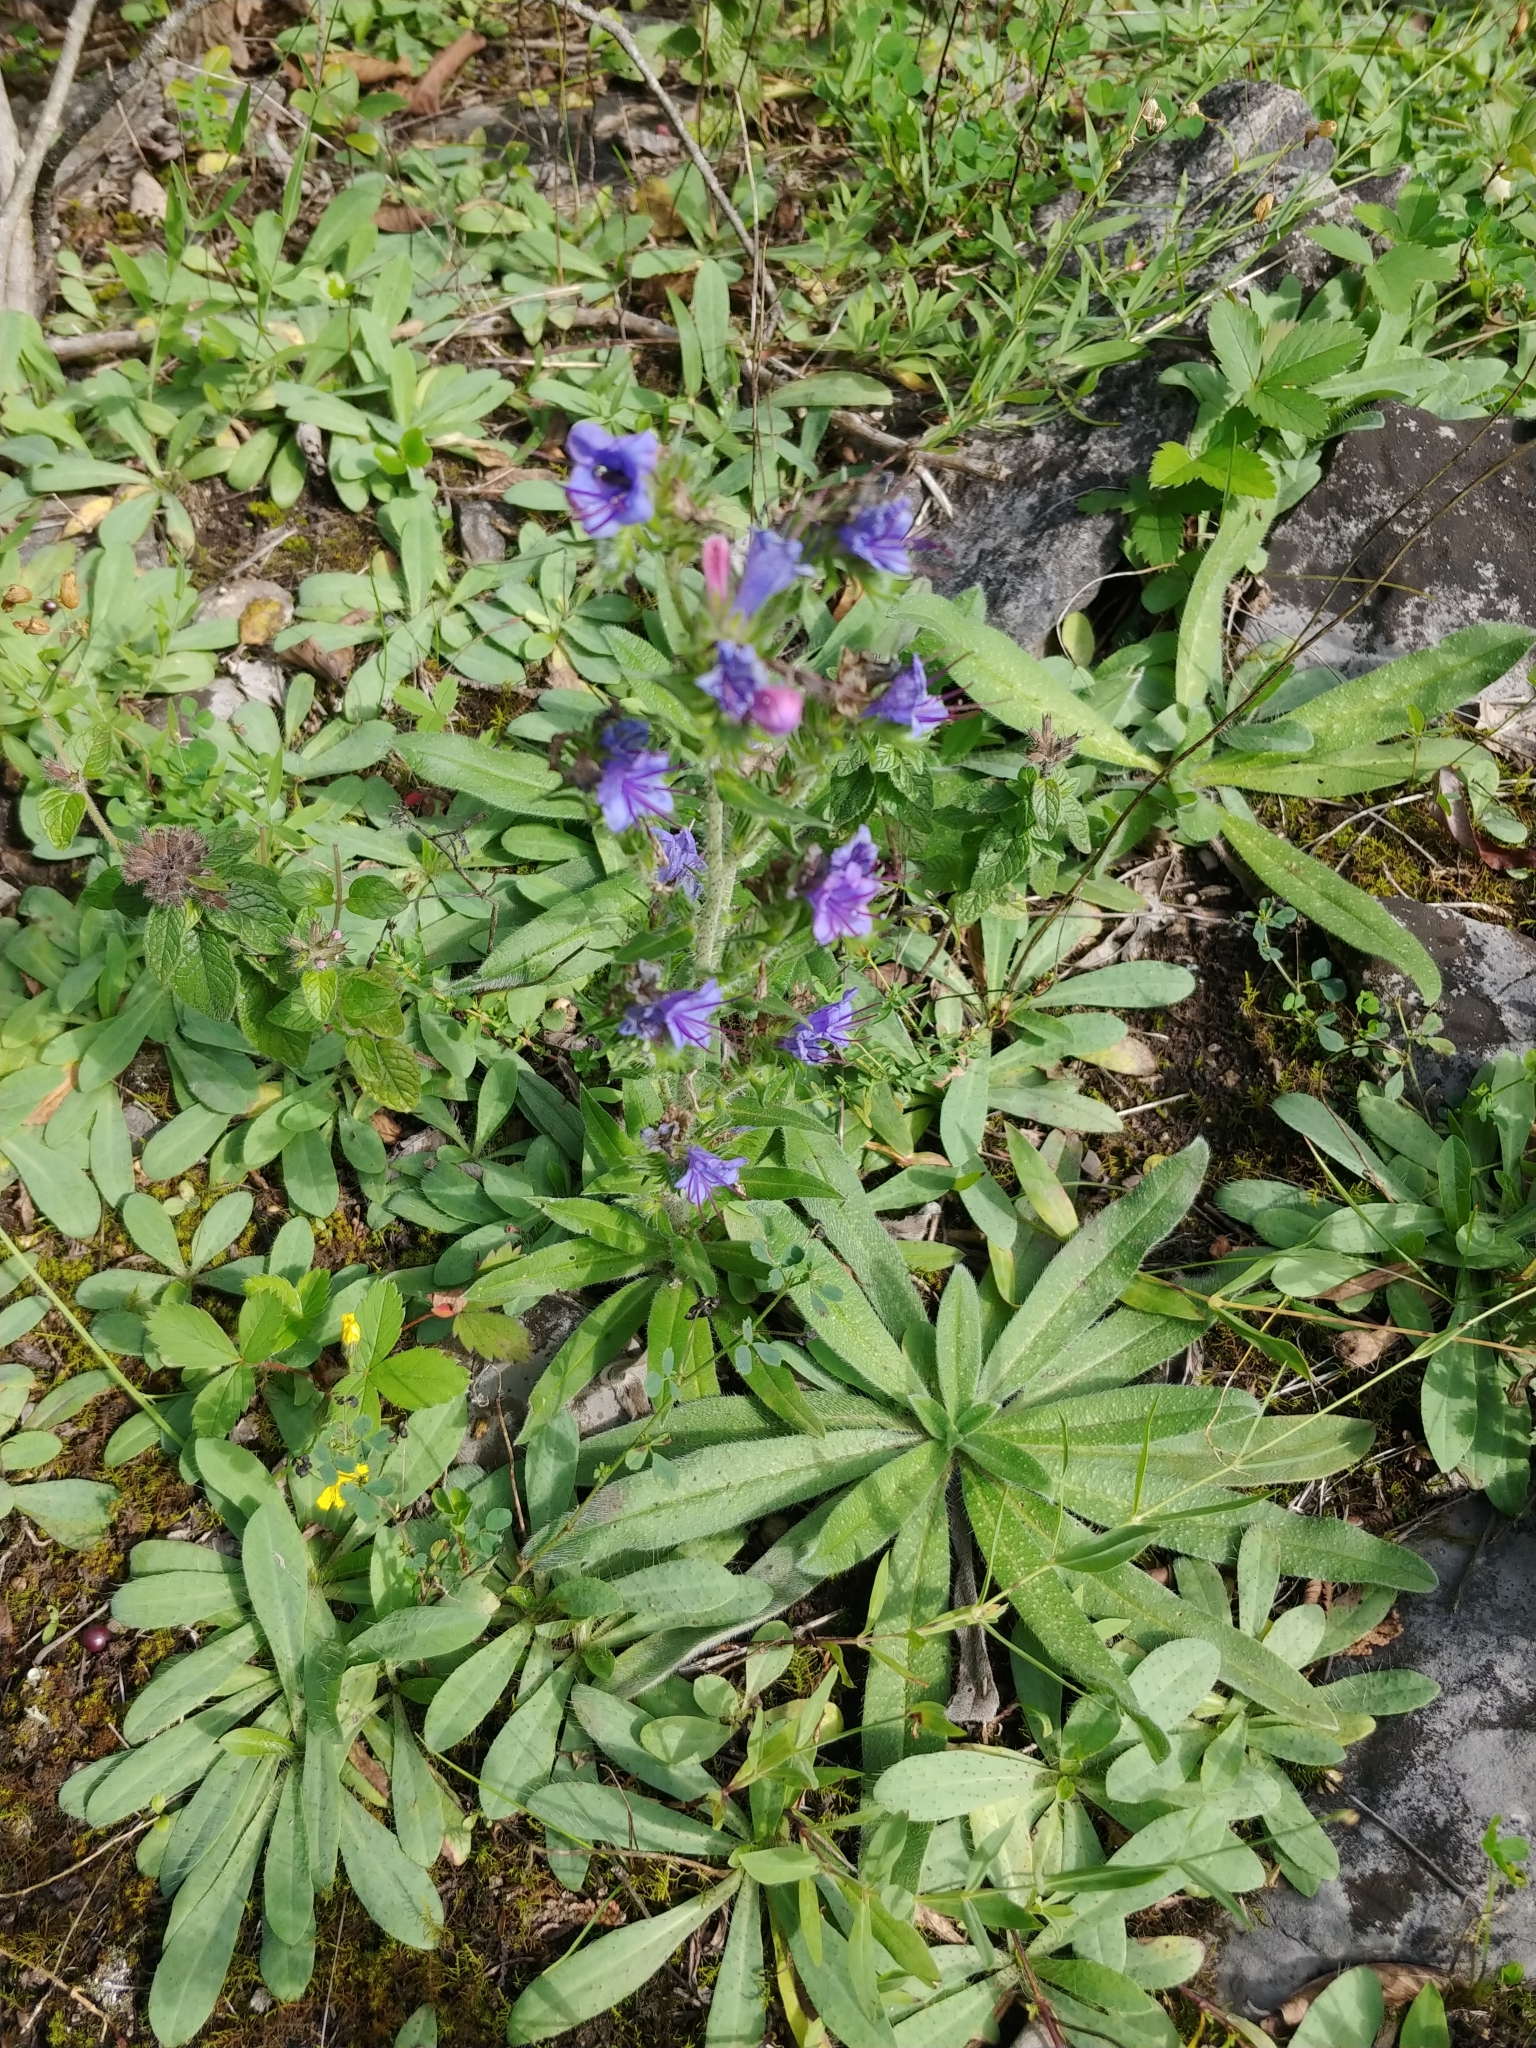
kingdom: Plantae
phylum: Tracheophyta
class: Magnoliopsida
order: Boraginales
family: Boraginaceae
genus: Echium
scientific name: Echium vulgare
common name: Common viper's bugloss
